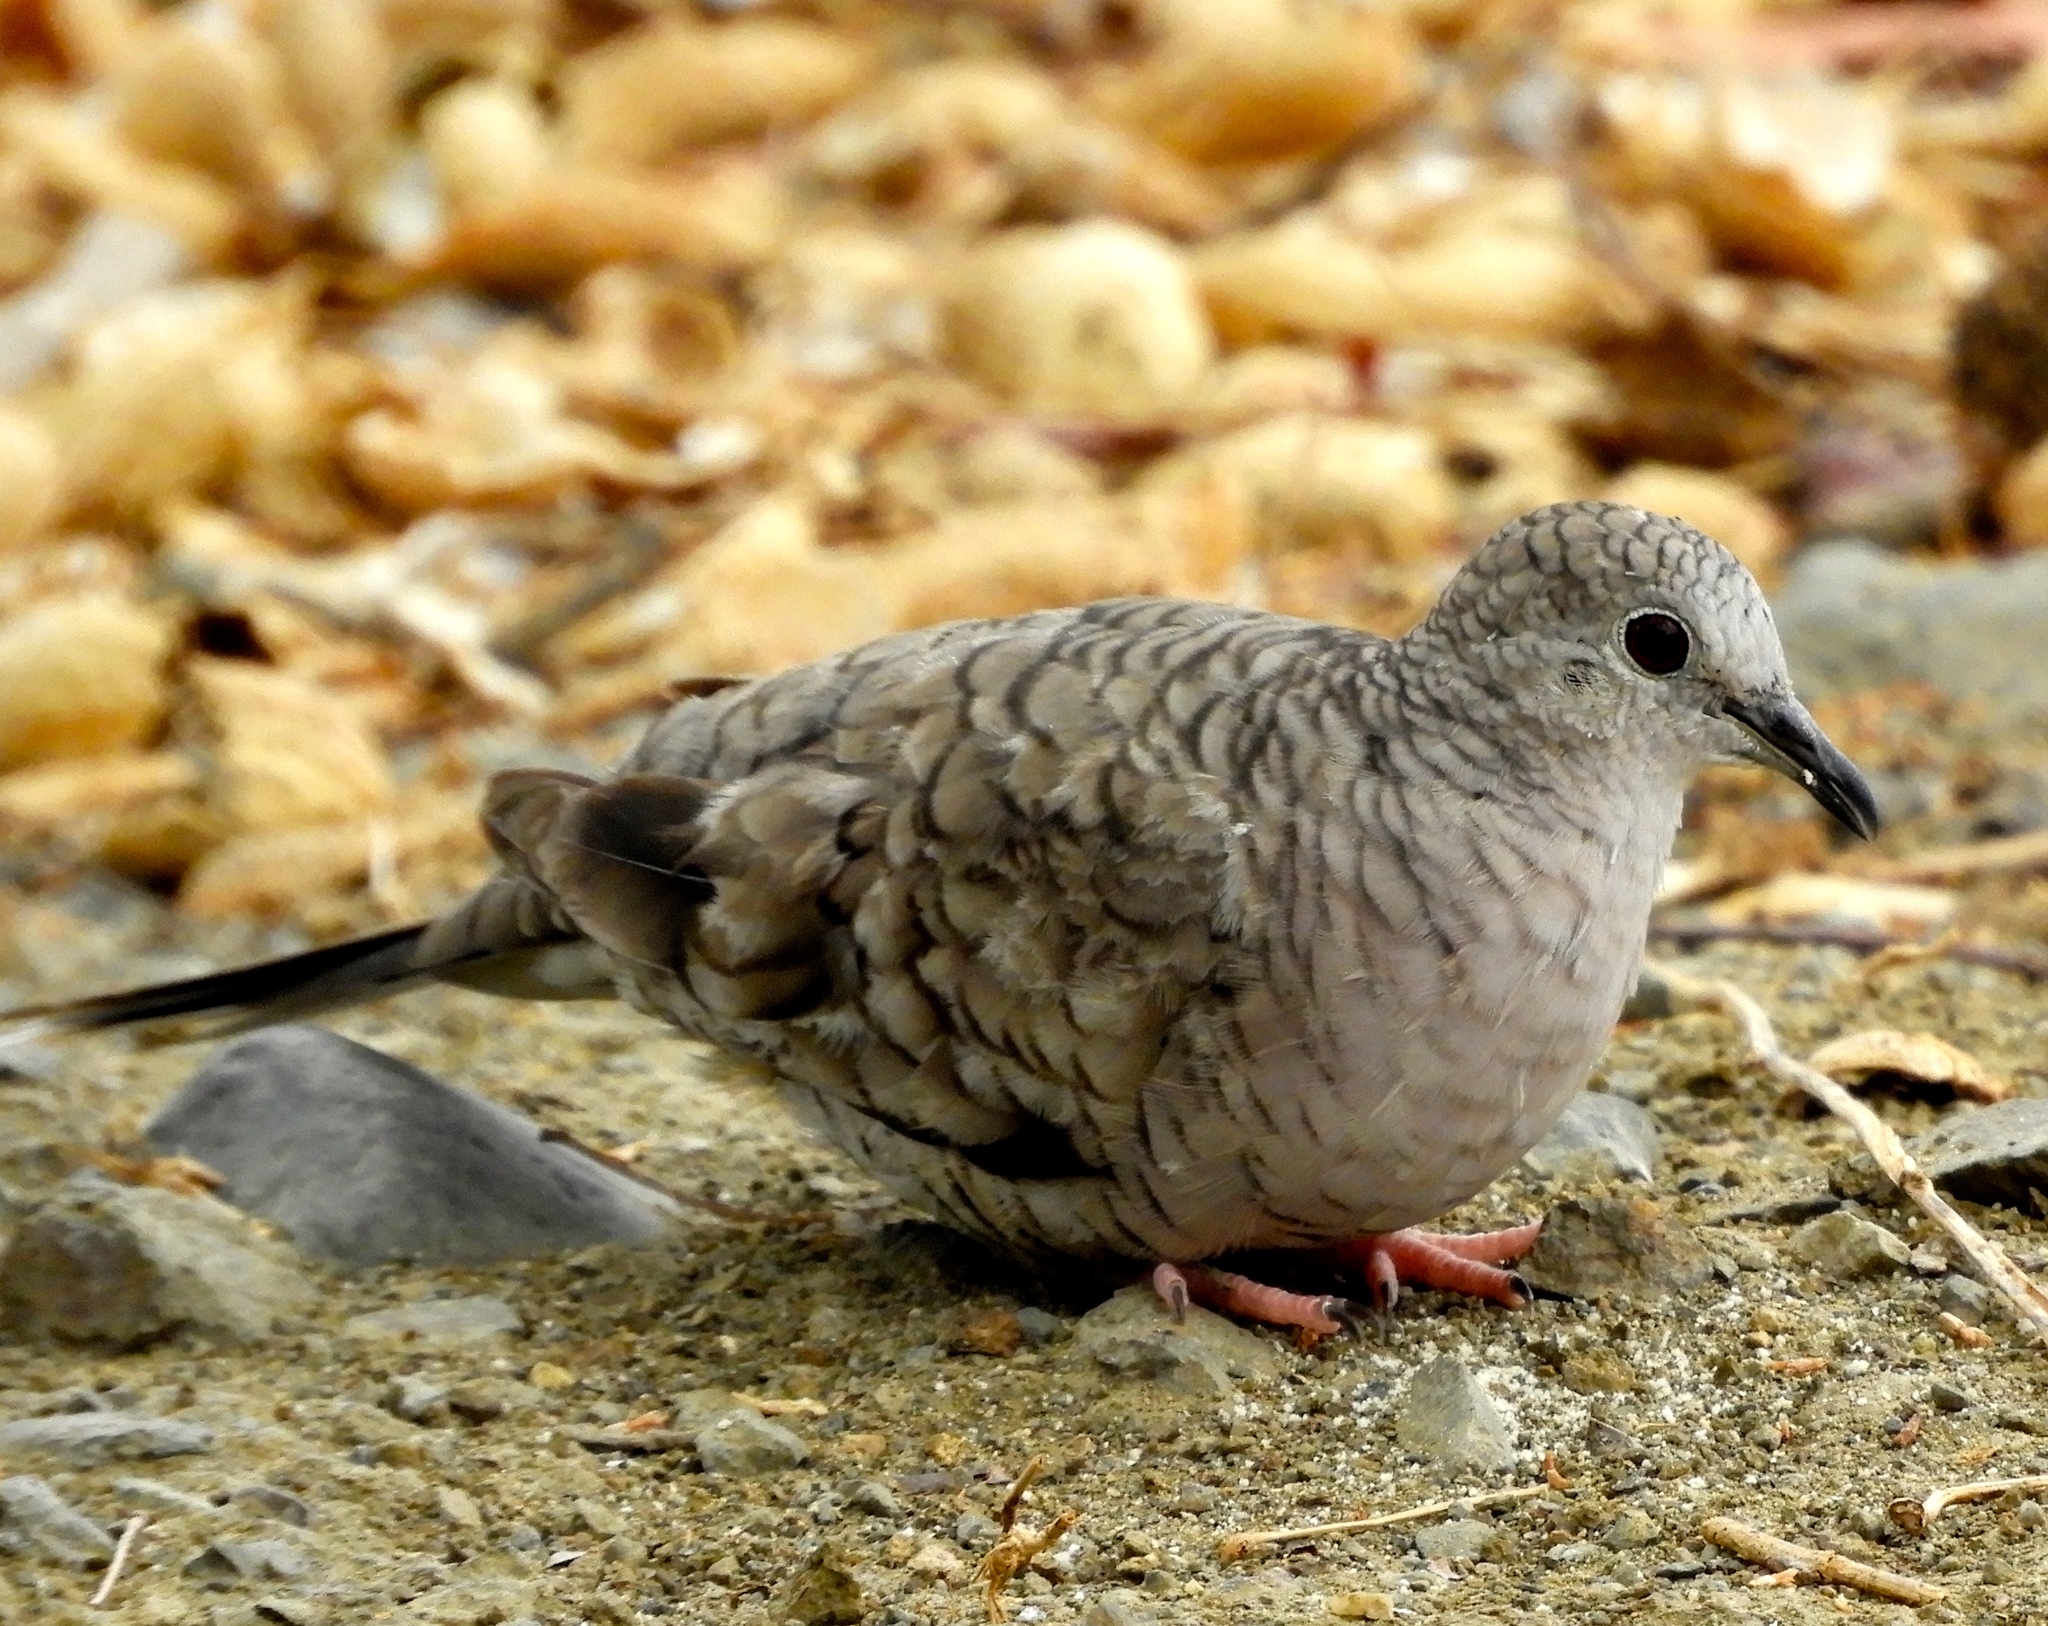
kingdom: Animalia
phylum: Chordata
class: Aves
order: Columbiformes
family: Columbidae
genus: Columbina
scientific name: Columbina inca
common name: Inca dove
